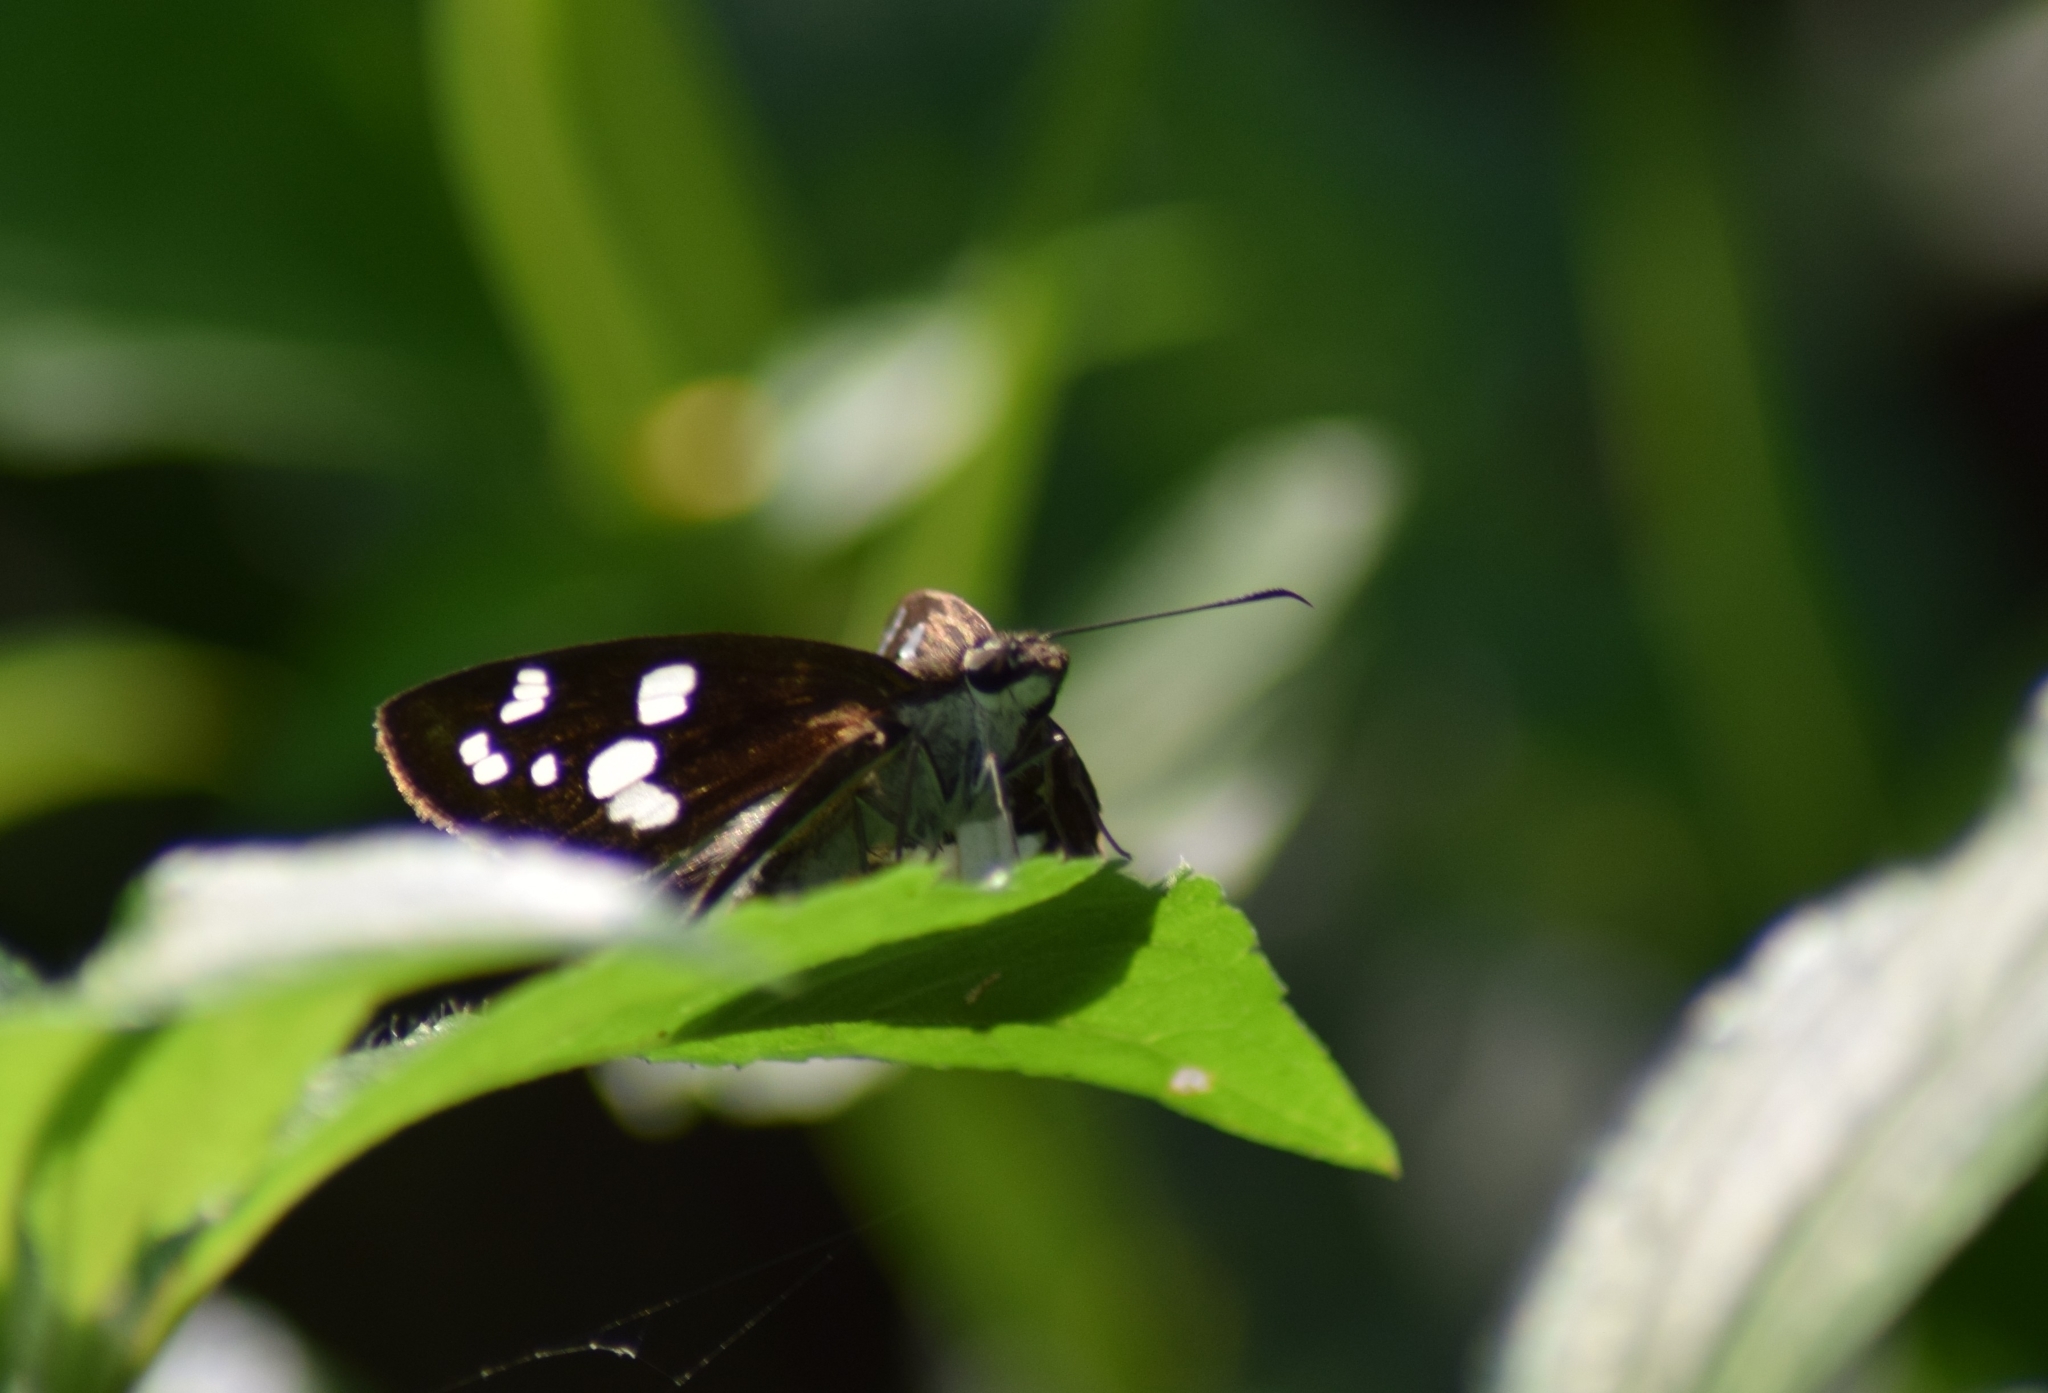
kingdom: Animalia
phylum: Arthropoda
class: Insecta
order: Lepidoptera
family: Hesperiidae
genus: Udaspes
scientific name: Udaspes folus
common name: Grass demon
